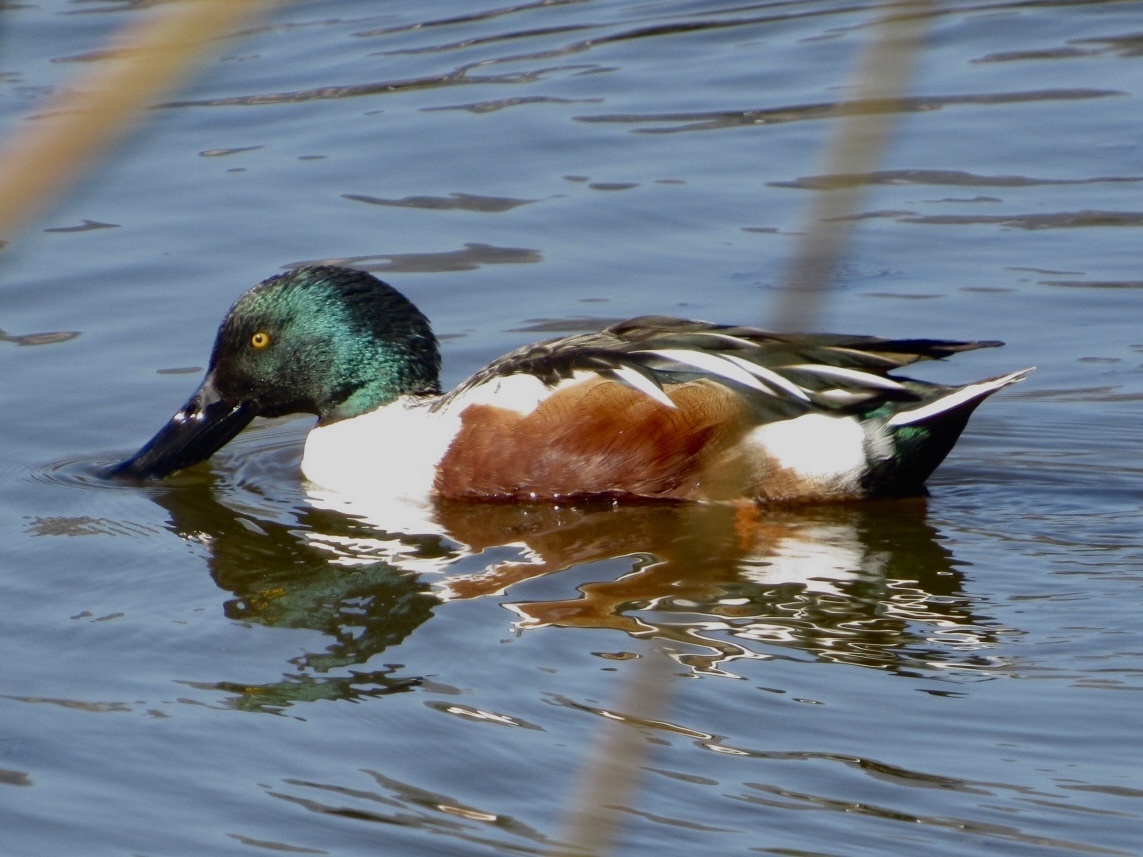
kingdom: Animalia
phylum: Chordata
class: Aves
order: Anseriformes
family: Anatidae
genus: Spatula
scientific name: Spatula clypeata
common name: Northern shoveler
